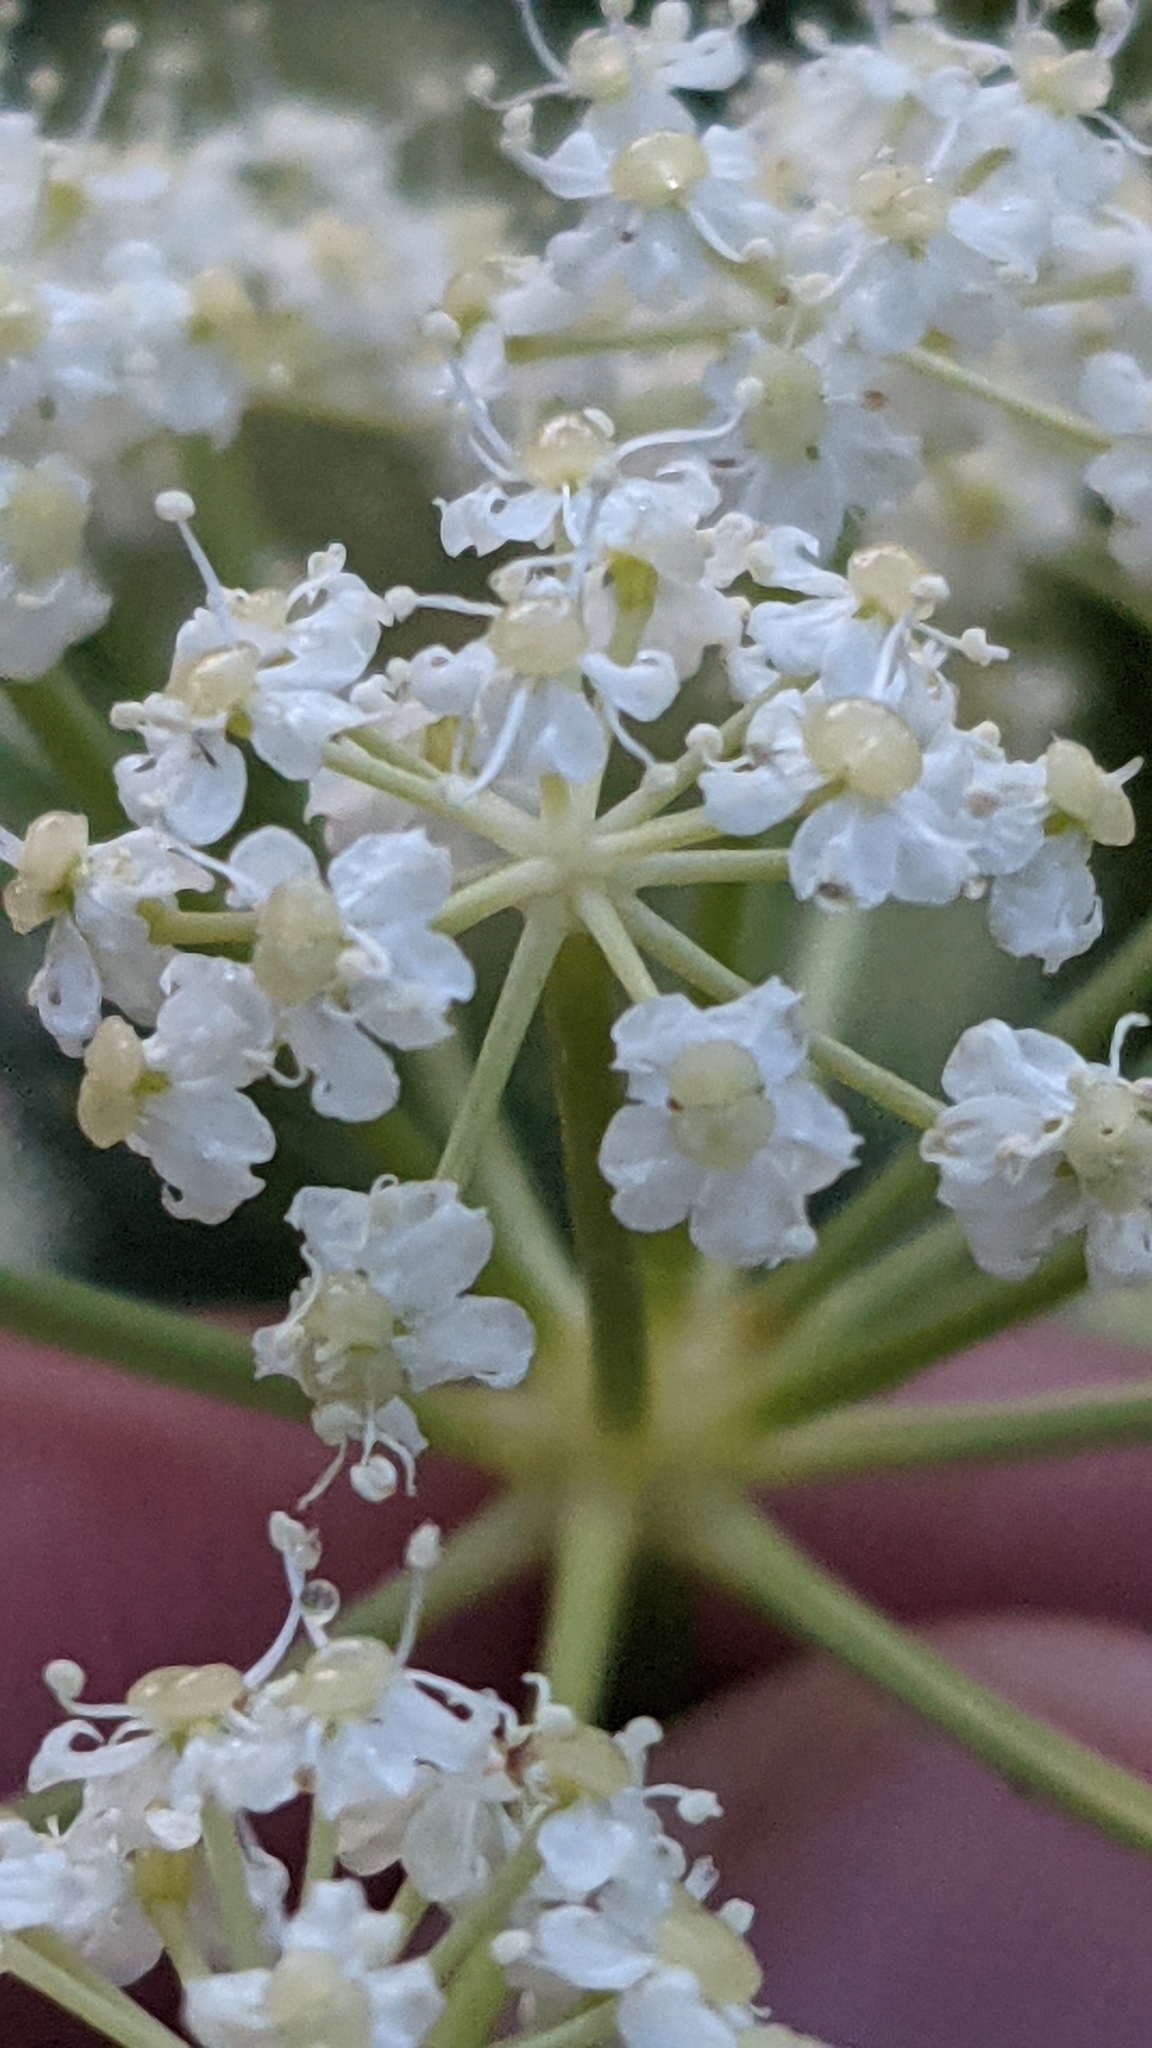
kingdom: Plantae
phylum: Tracheophyta
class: Magnoliopsida
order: Apiales
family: Apiaceae
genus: Ligusticum
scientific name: Ligusticum porteri
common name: Mountain lovage
